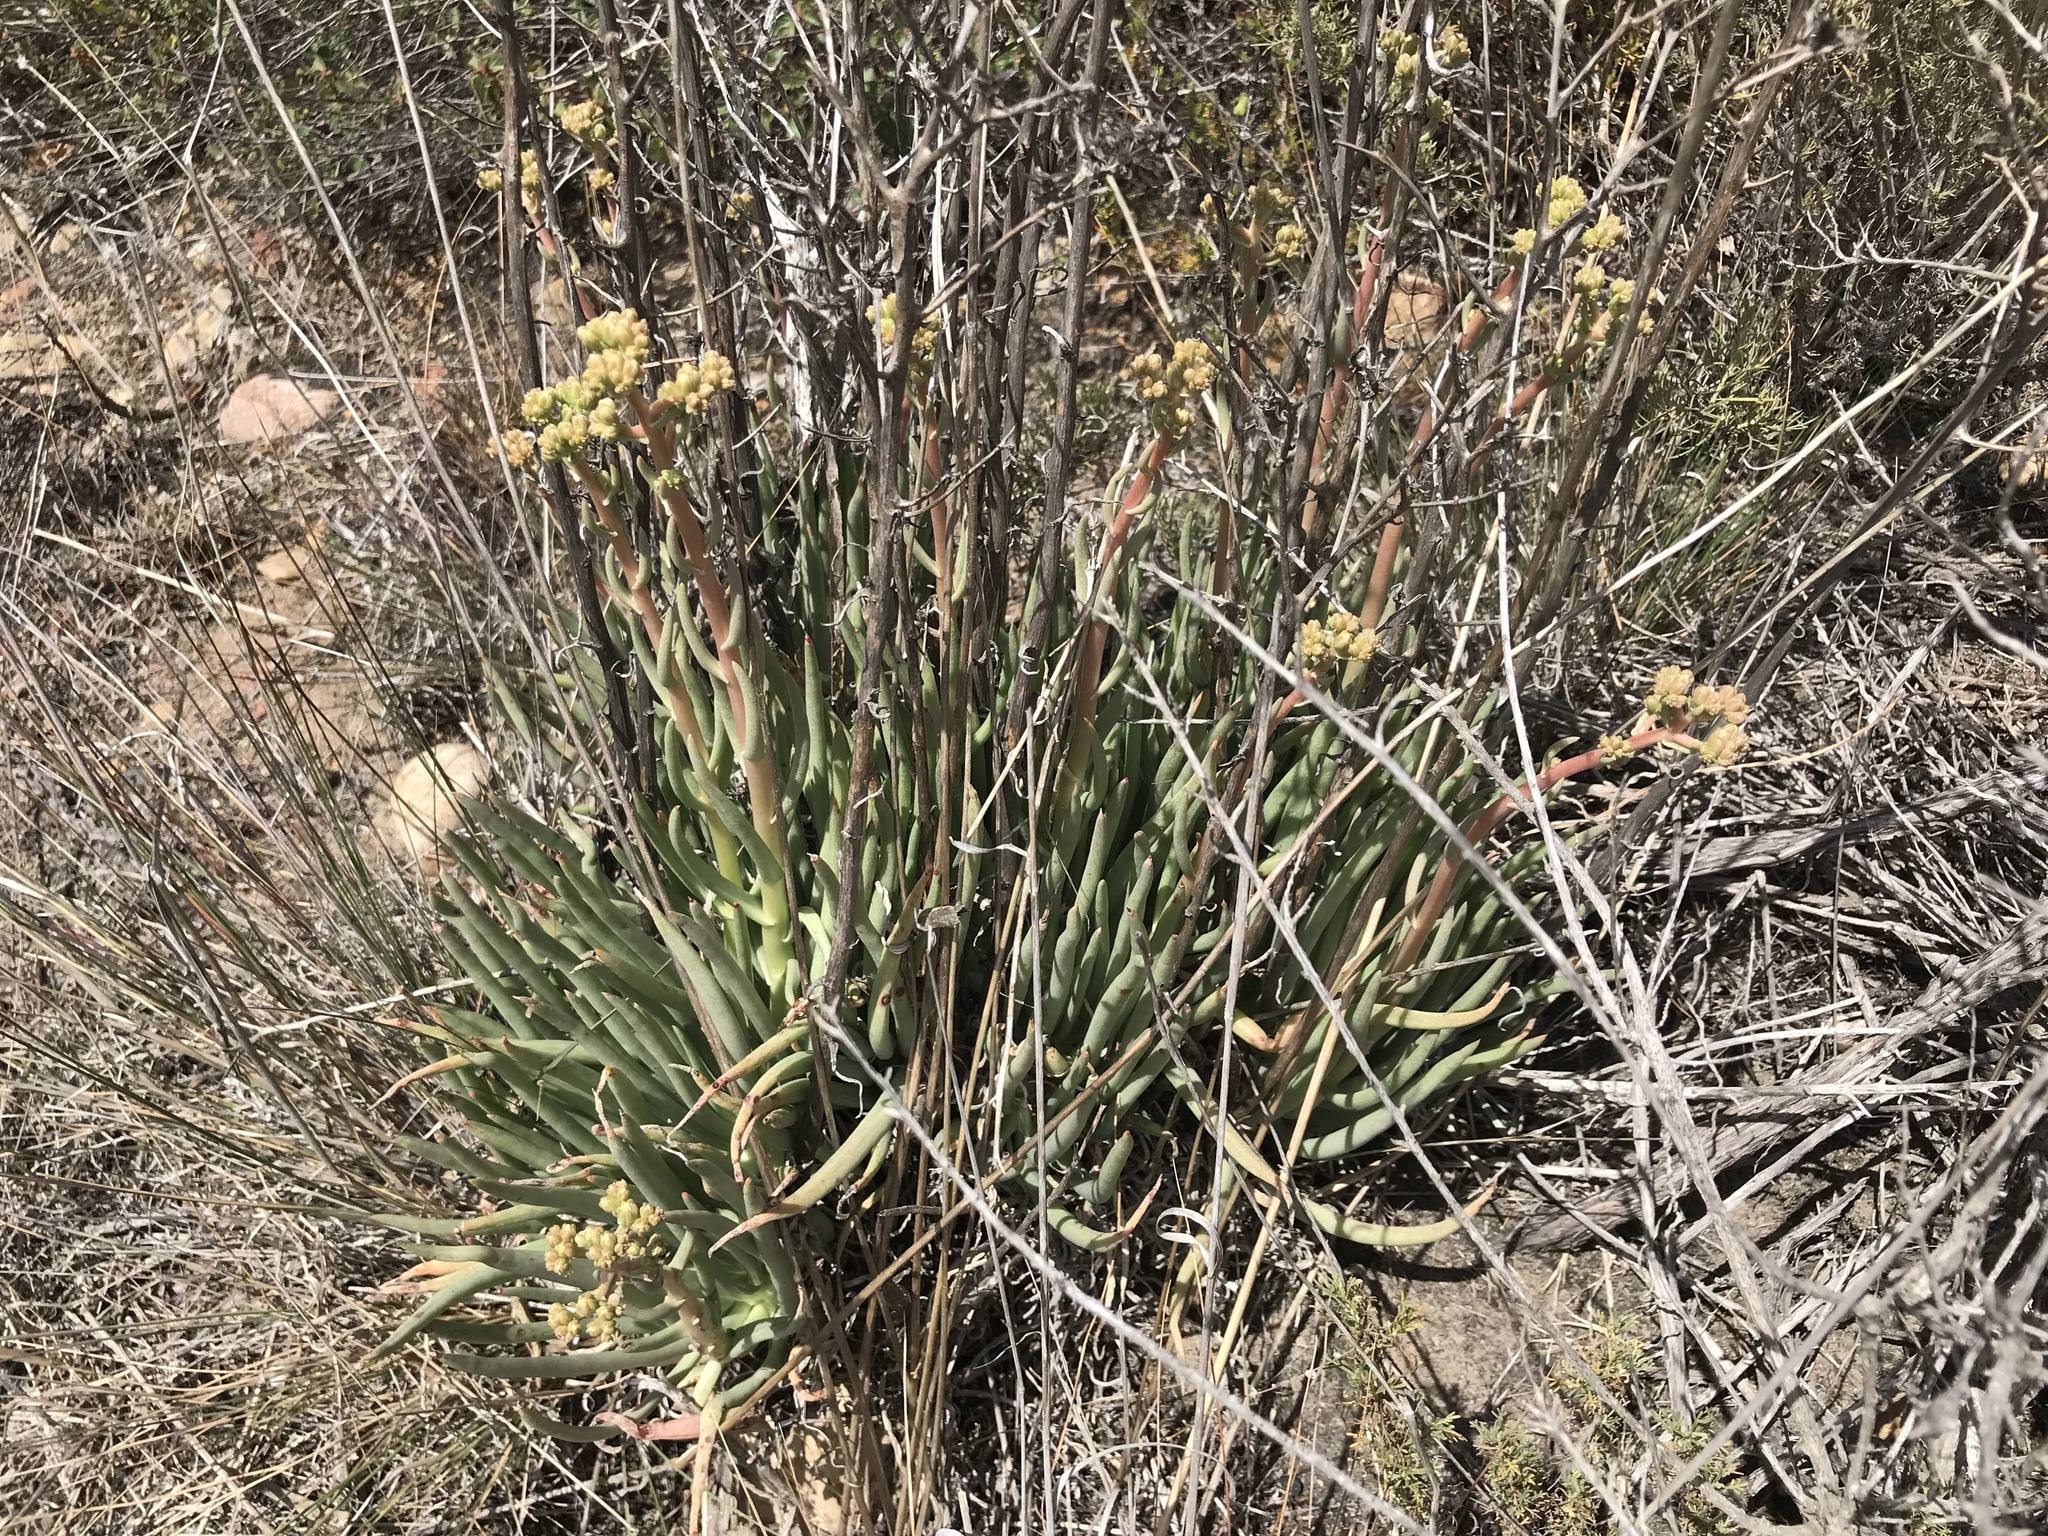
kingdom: Plantae
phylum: Tracheophyta
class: Magnoliopsida
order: Saxifragales
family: Crassulaceae
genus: Dudleya
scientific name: Dudleya edulis
